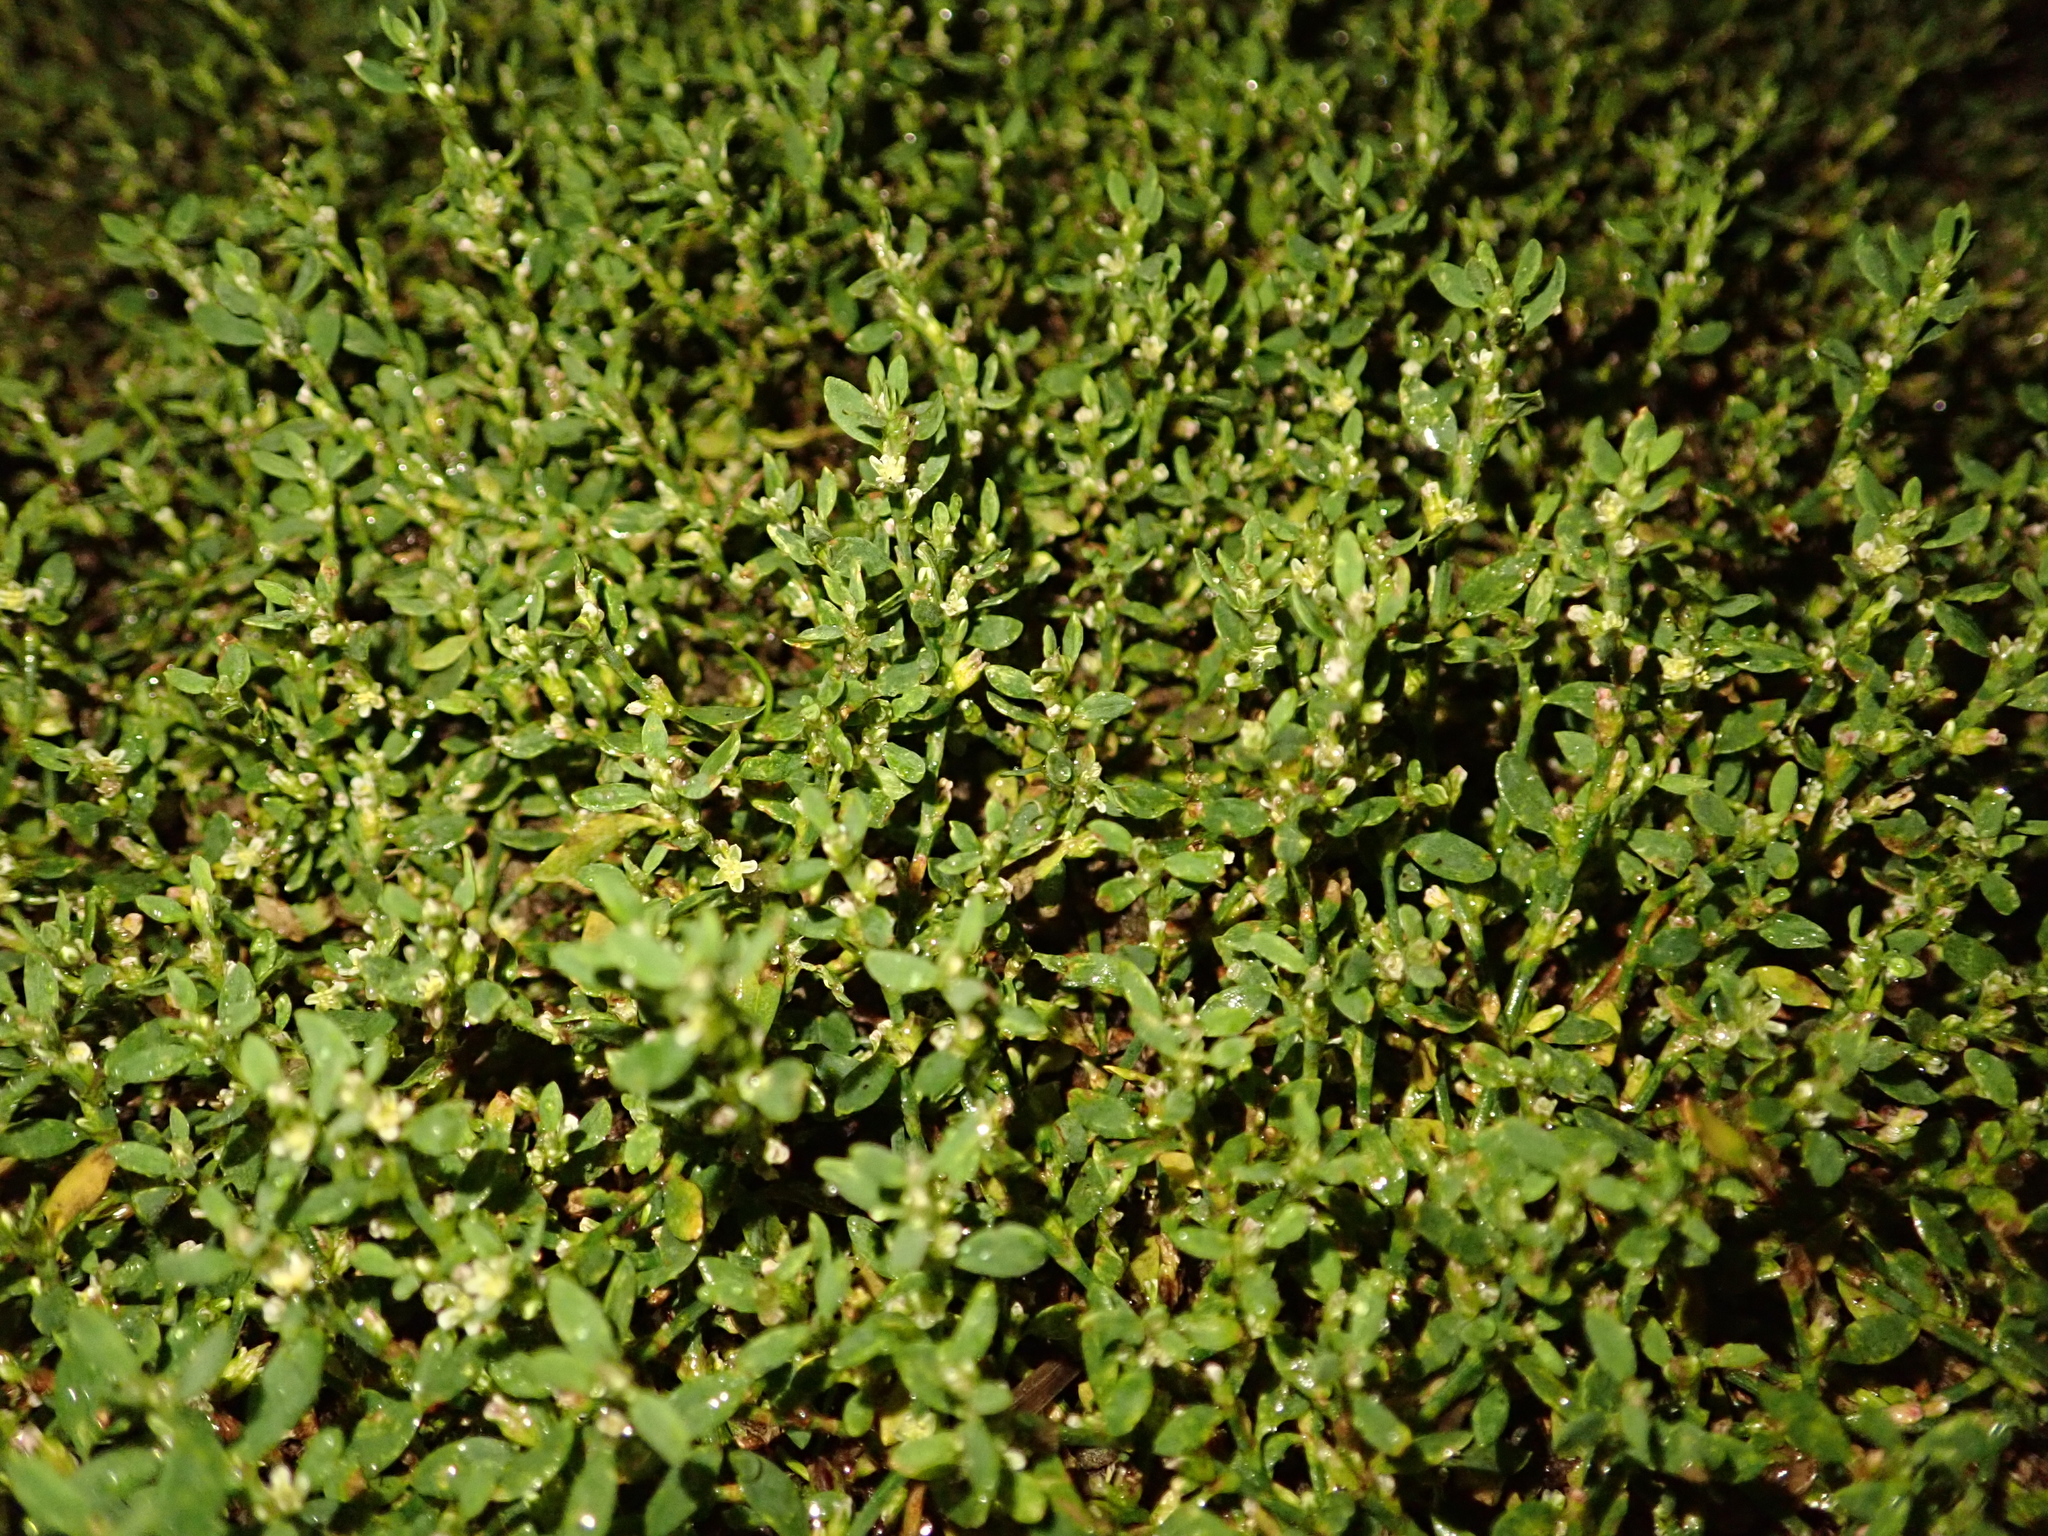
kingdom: Plantae
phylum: Tracheophyta
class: Magnoliopsida
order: Caryophyllales
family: Polygonaceae
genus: Polygonum
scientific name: Polygonum aviculare
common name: Prostrate knotweed
